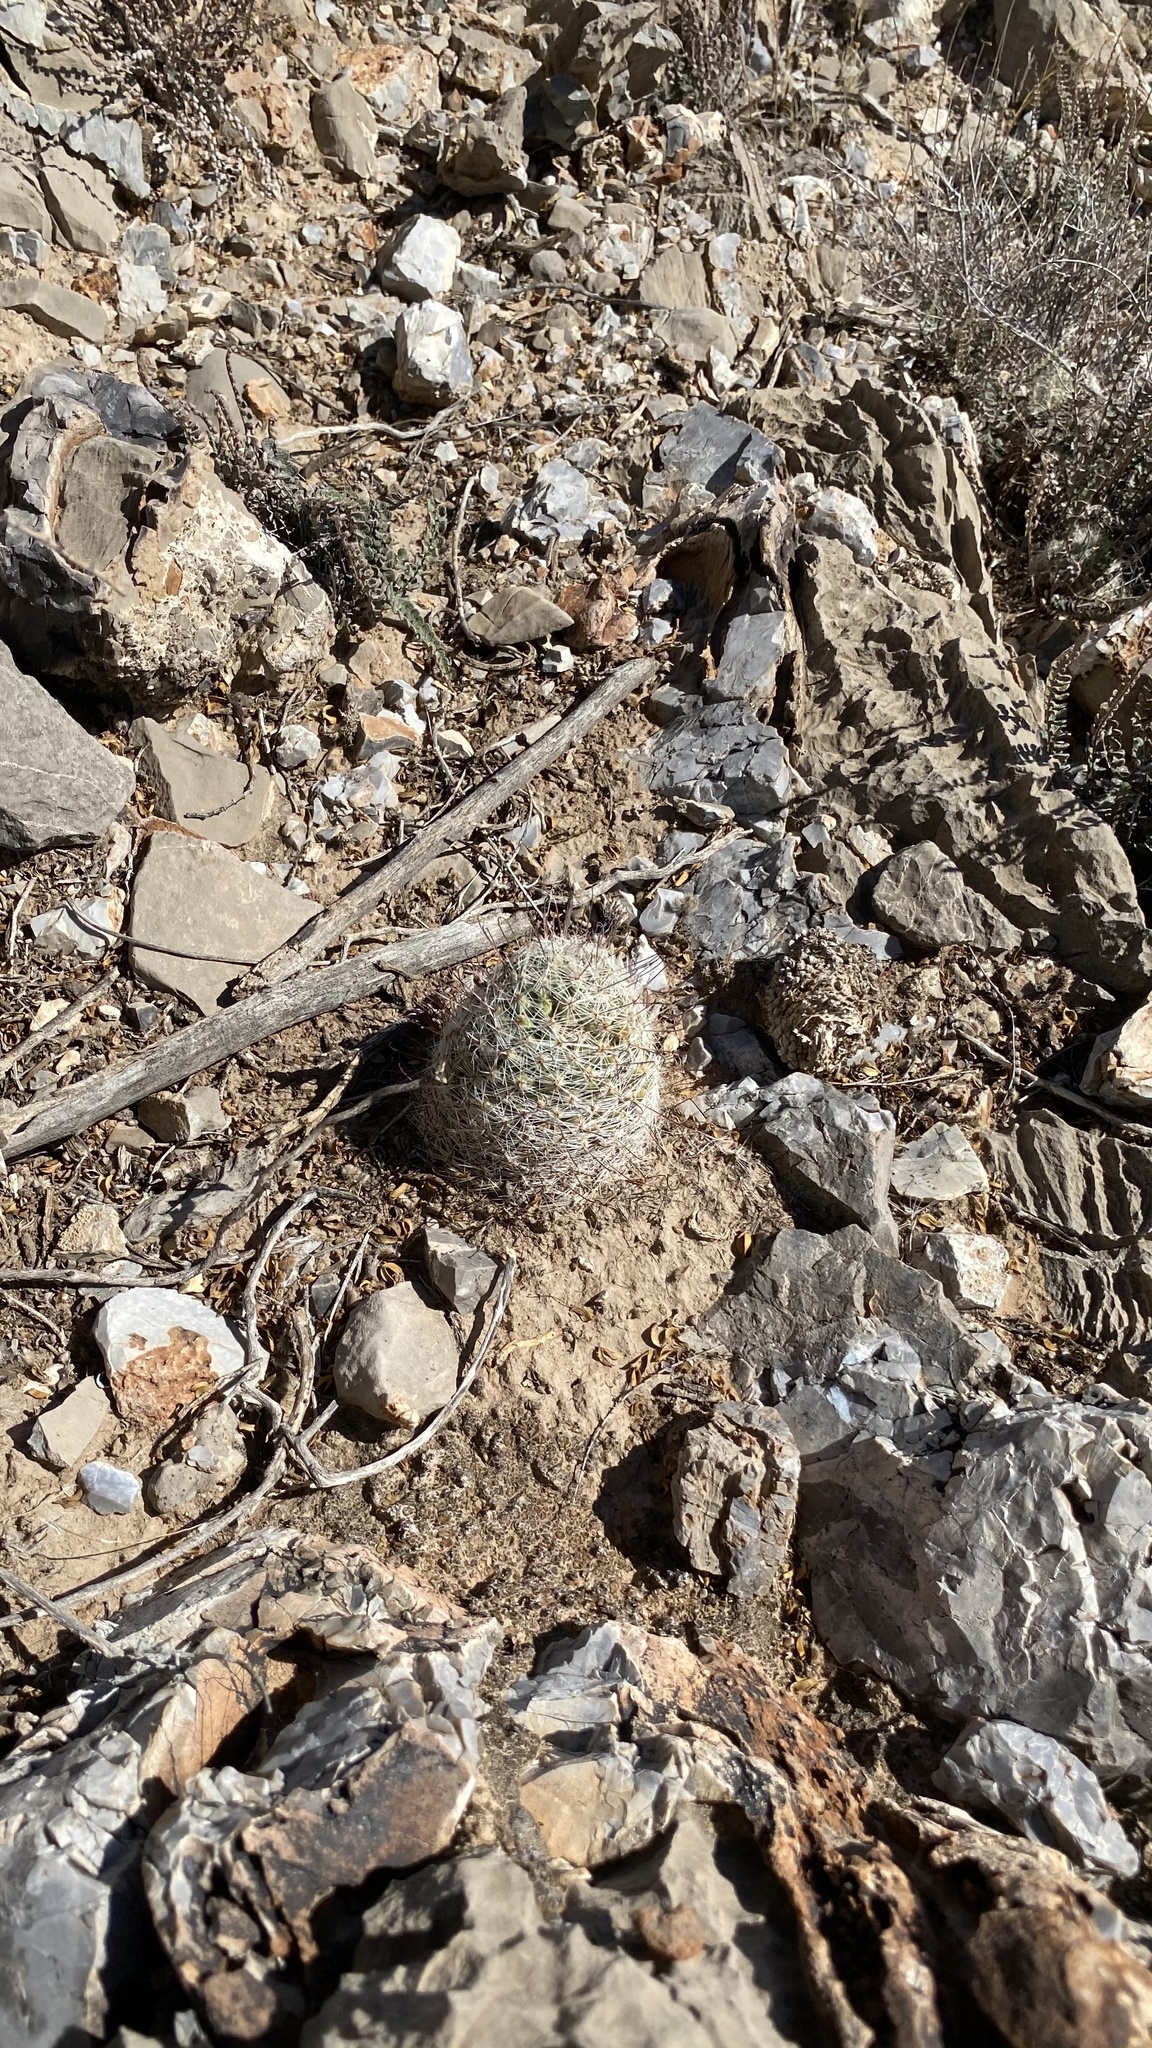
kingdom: Plantae
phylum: Tracheophyta
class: Magnoliopsida
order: Caryophyllales
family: Cactaceae
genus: Cochemiea
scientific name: Cochemiea grahamii
